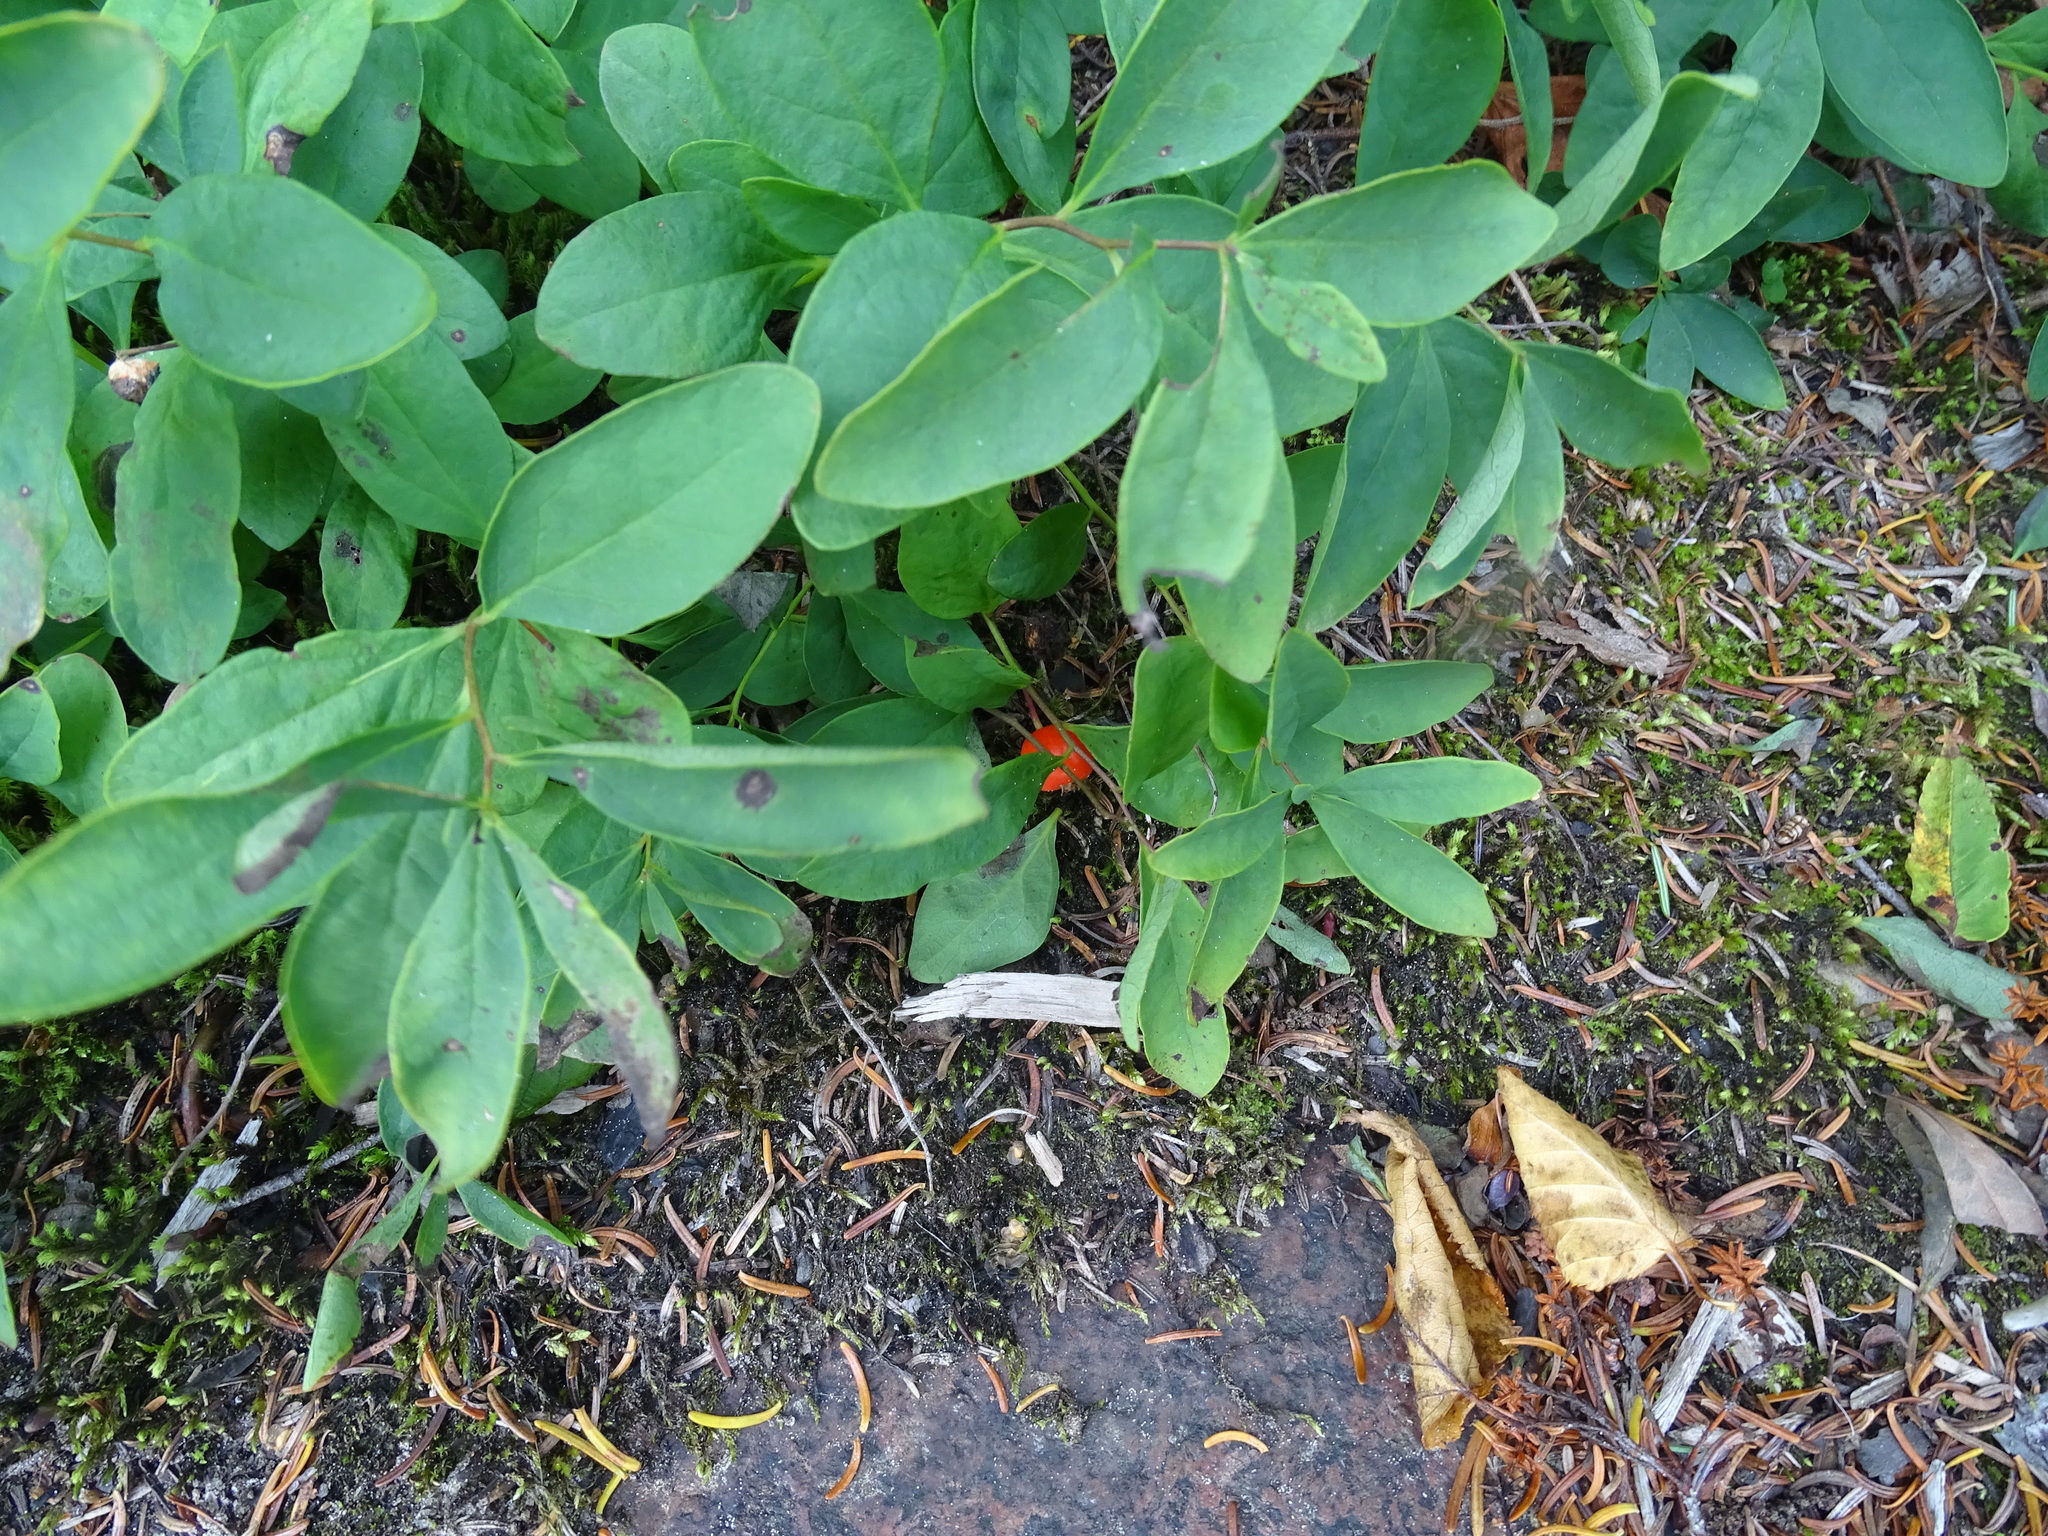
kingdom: Plantae
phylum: Tracheophyta
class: Magnoliopsida
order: Santalales
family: Comandraceae
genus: Geocaulon
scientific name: Geocaulon lividum
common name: Earthberry
